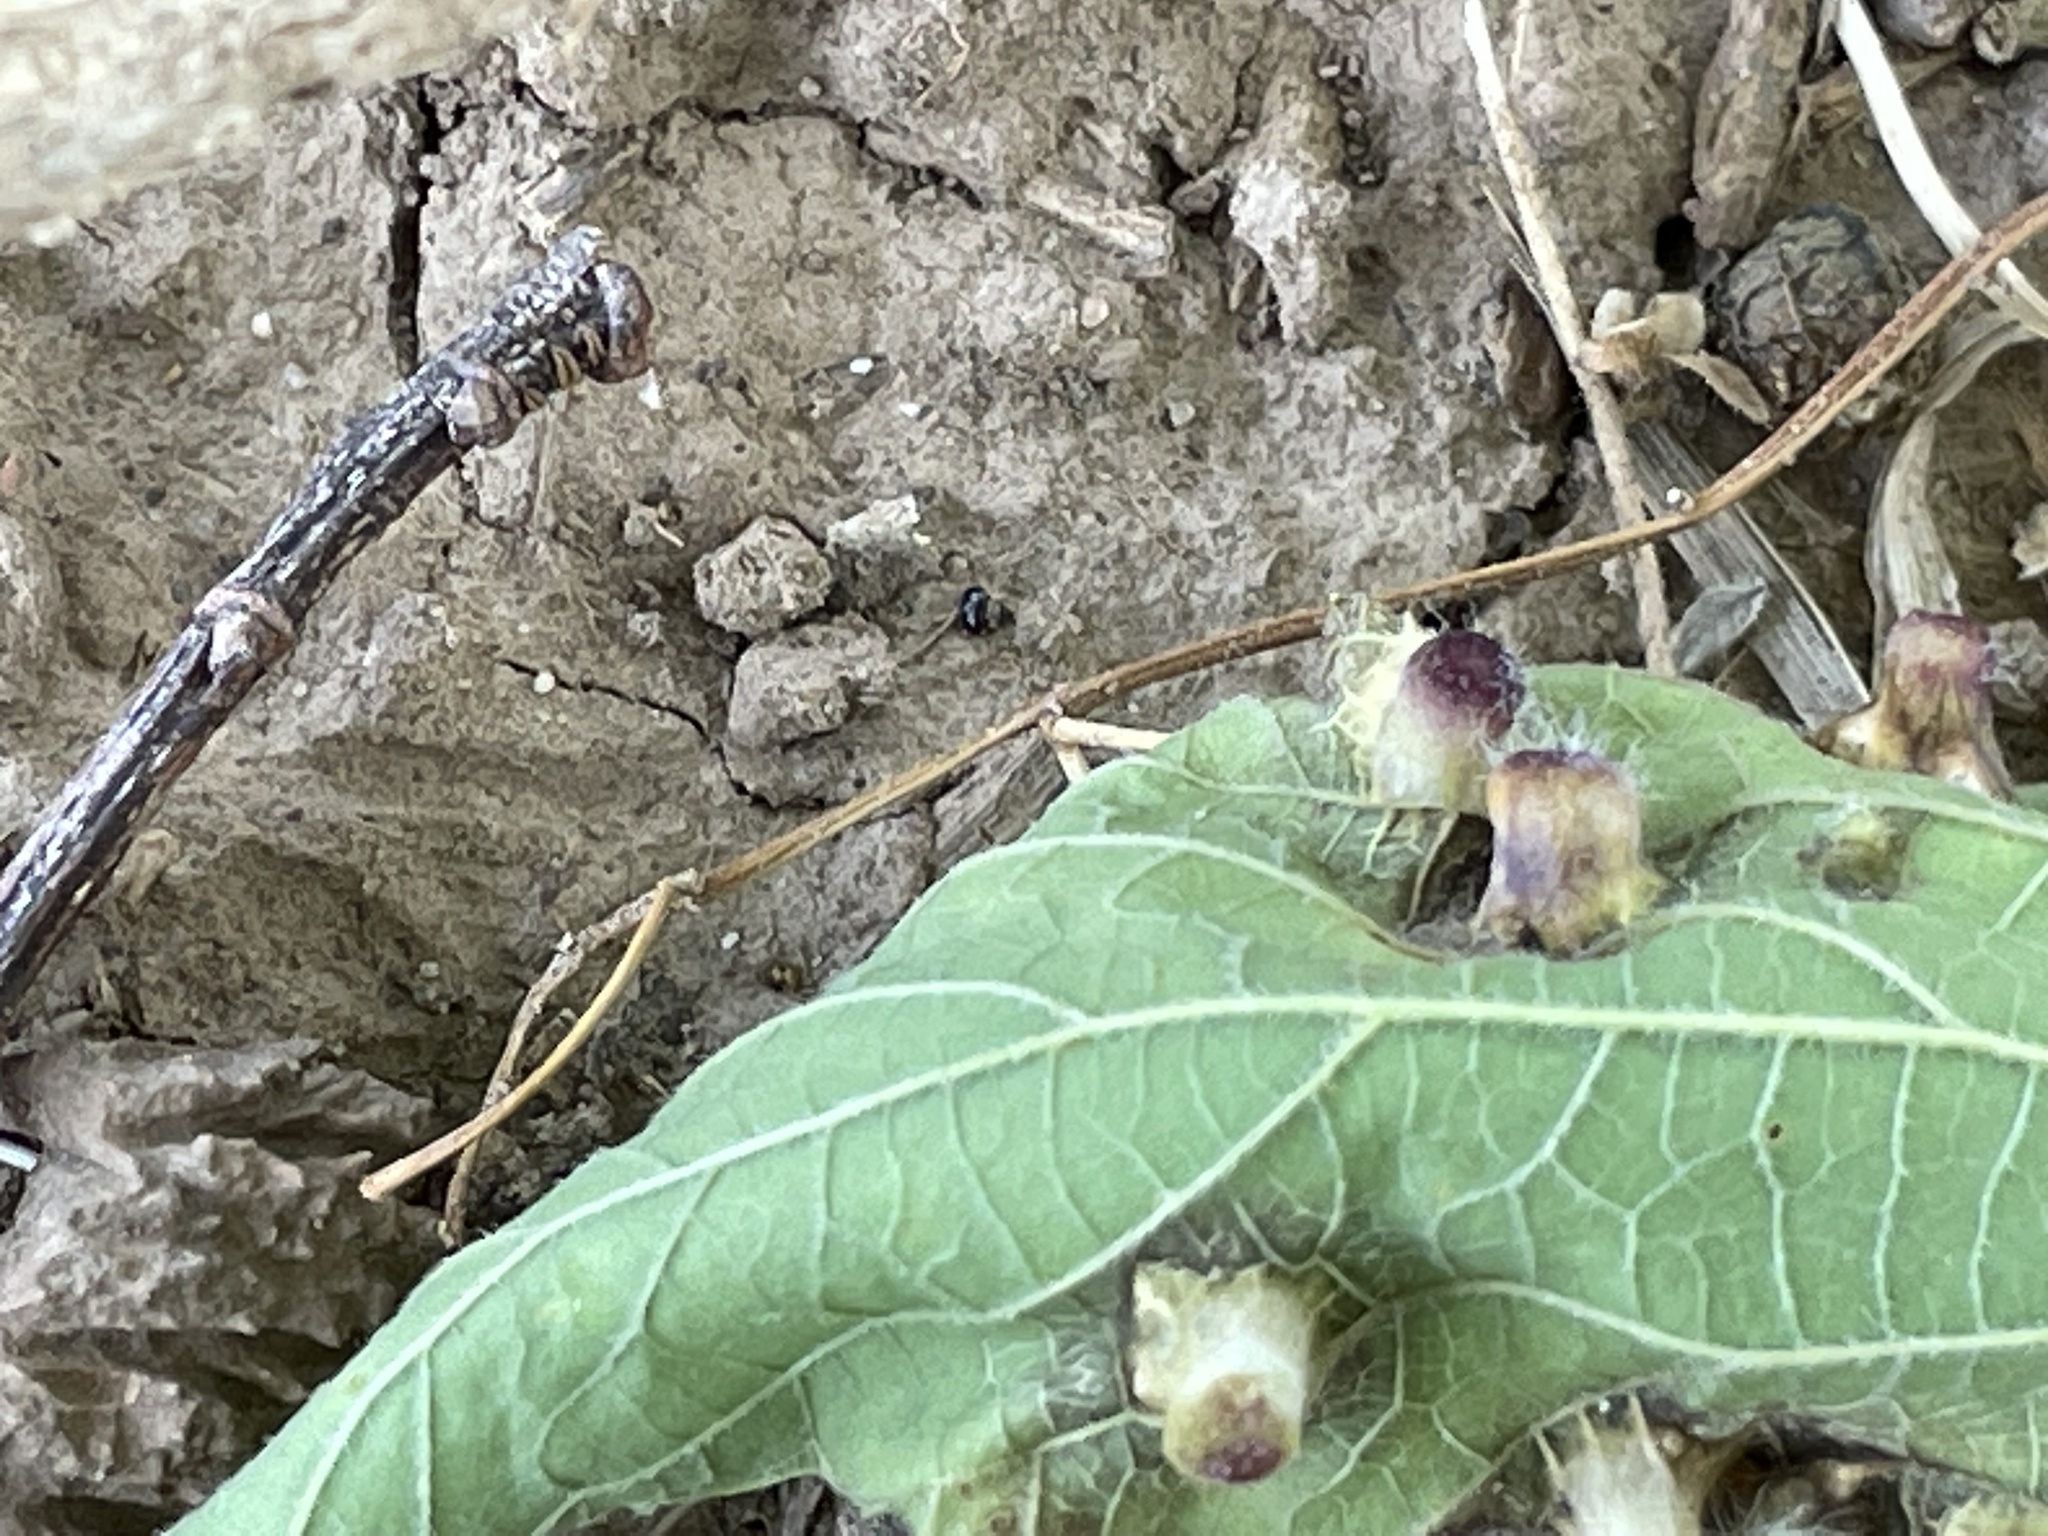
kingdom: Animalia
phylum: Arthropoda
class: Insecta
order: Hemiptera
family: Aphalaridae
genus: Pachypsylla
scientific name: Pachypsylla celtidismamma
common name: Hackberry nipplegall psyllid
